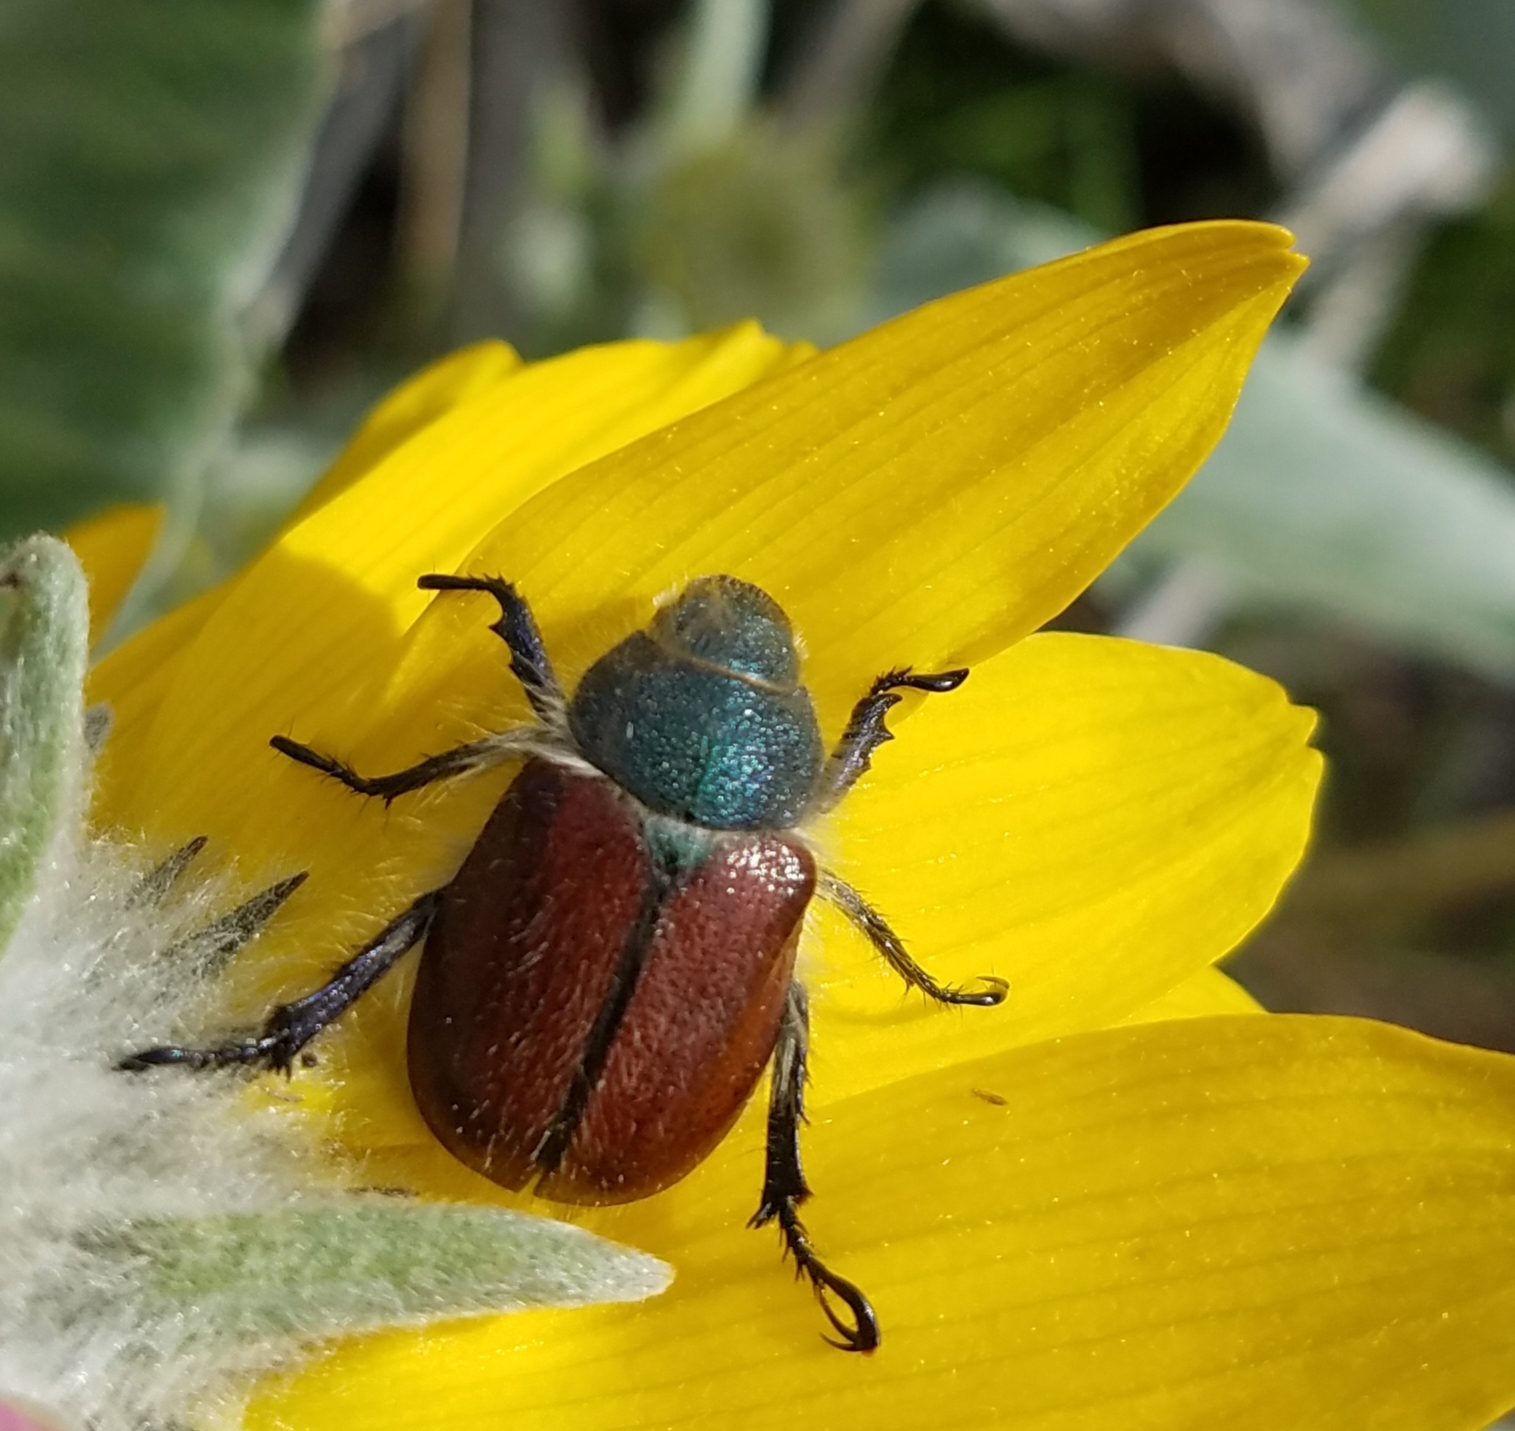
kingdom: Animalia
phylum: Arthropoda
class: Insecta
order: Coleoptera
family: Scarabaeidae
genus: Paracotalpa
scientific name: Paracotalpa granicollis
